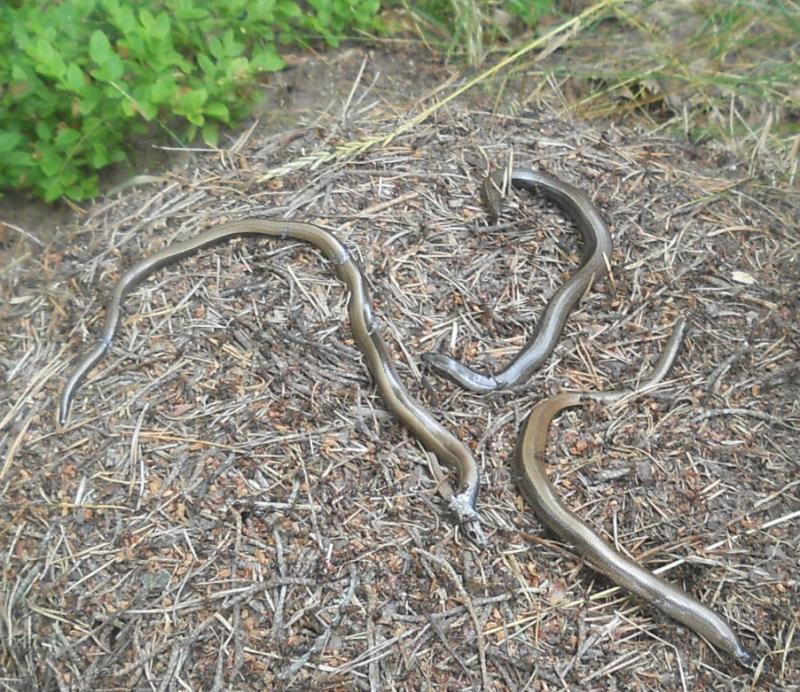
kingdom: Animalia
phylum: Chordata
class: Squamata
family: Anguidae
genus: Anguis
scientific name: Anguis colchica
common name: Slow worm
